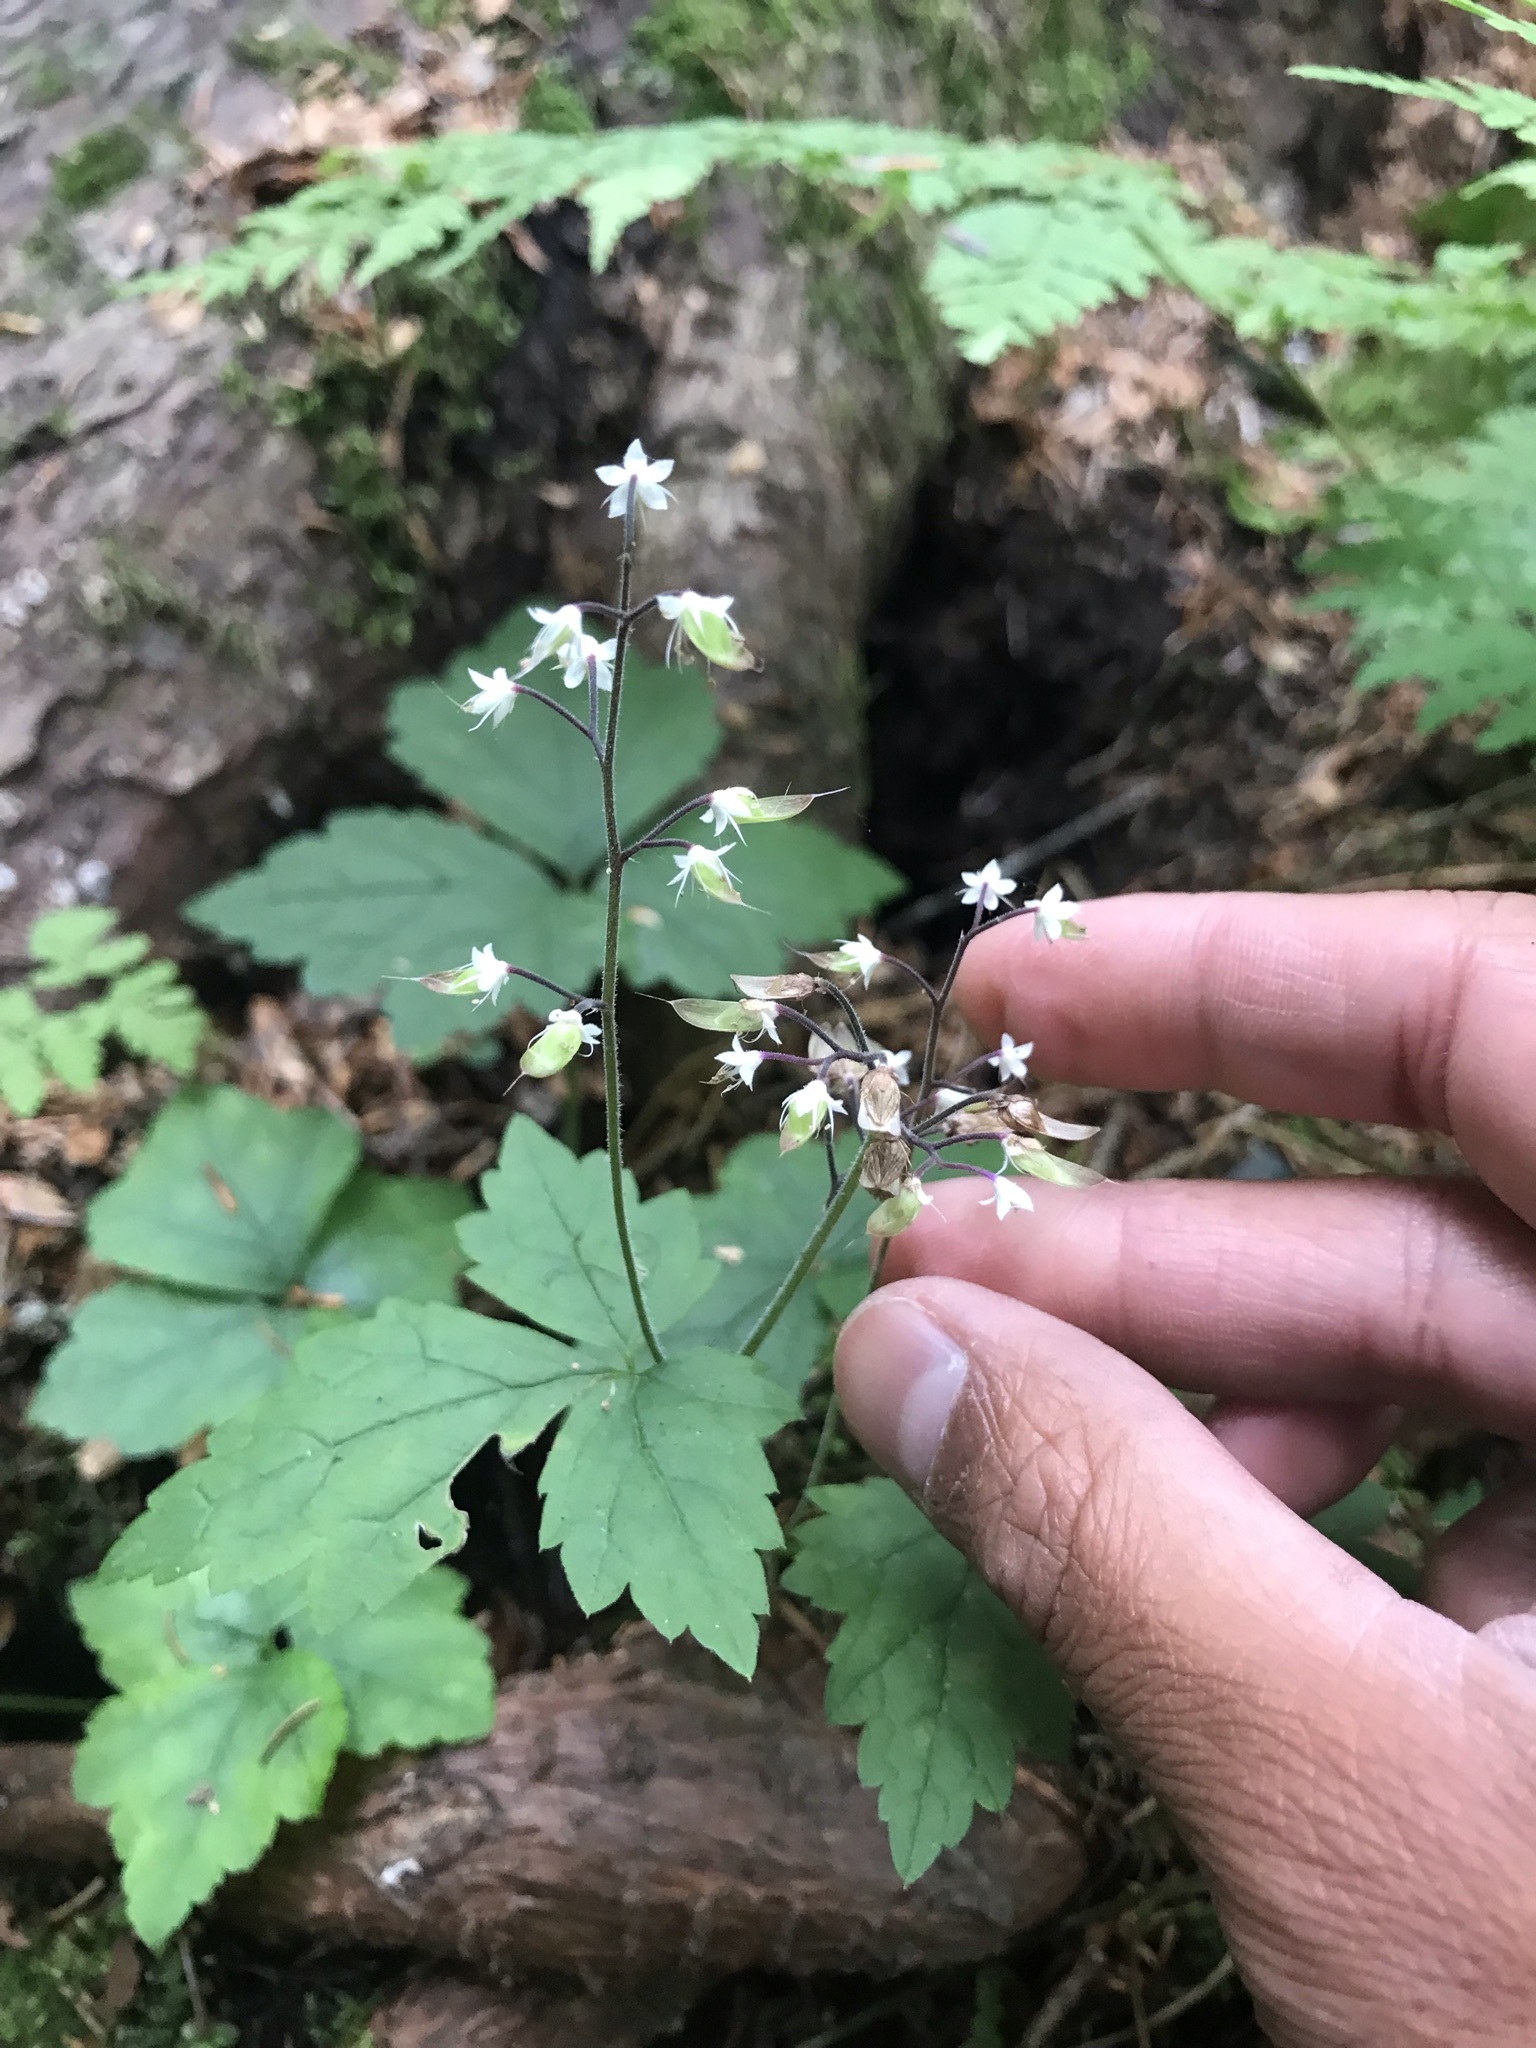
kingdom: Plantae
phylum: Tracheophyta
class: Magnoliopsida
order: Saxifragales
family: Saxifragaceae
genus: Tiarella
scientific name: Tiarella trifoliata
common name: Sugar-scoop
